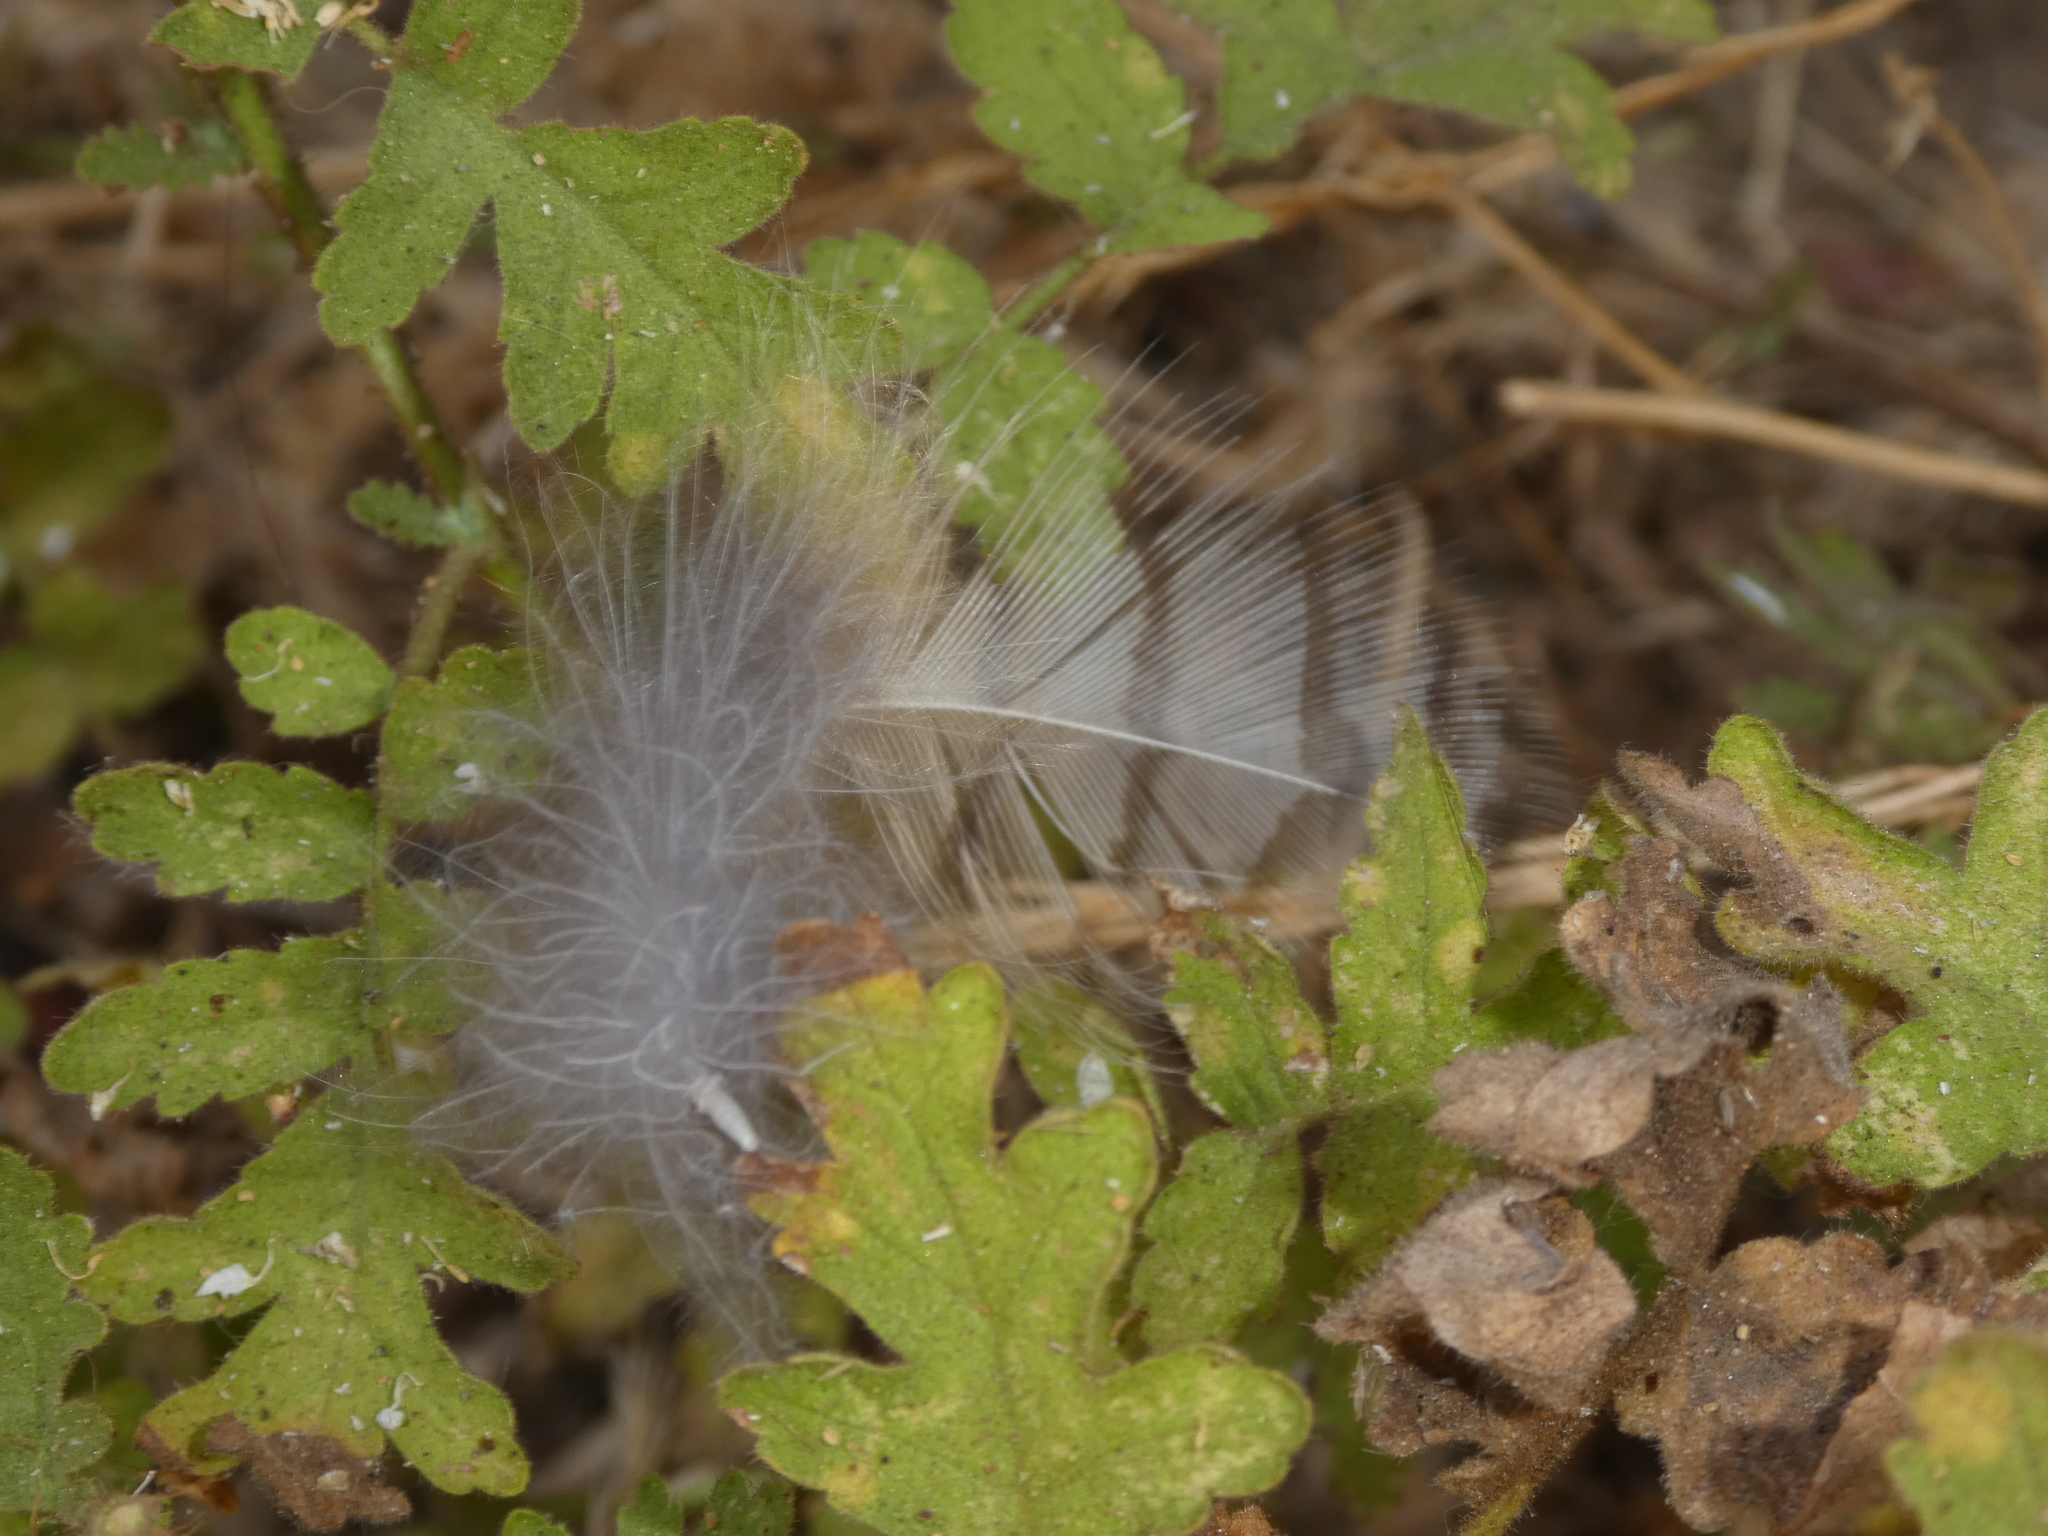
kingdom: Animalia
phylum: Chordata
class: Aves
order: Strigiformes
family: Strigidae
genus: Bubo
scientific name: Bubo virginianus
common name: Great horned owl
